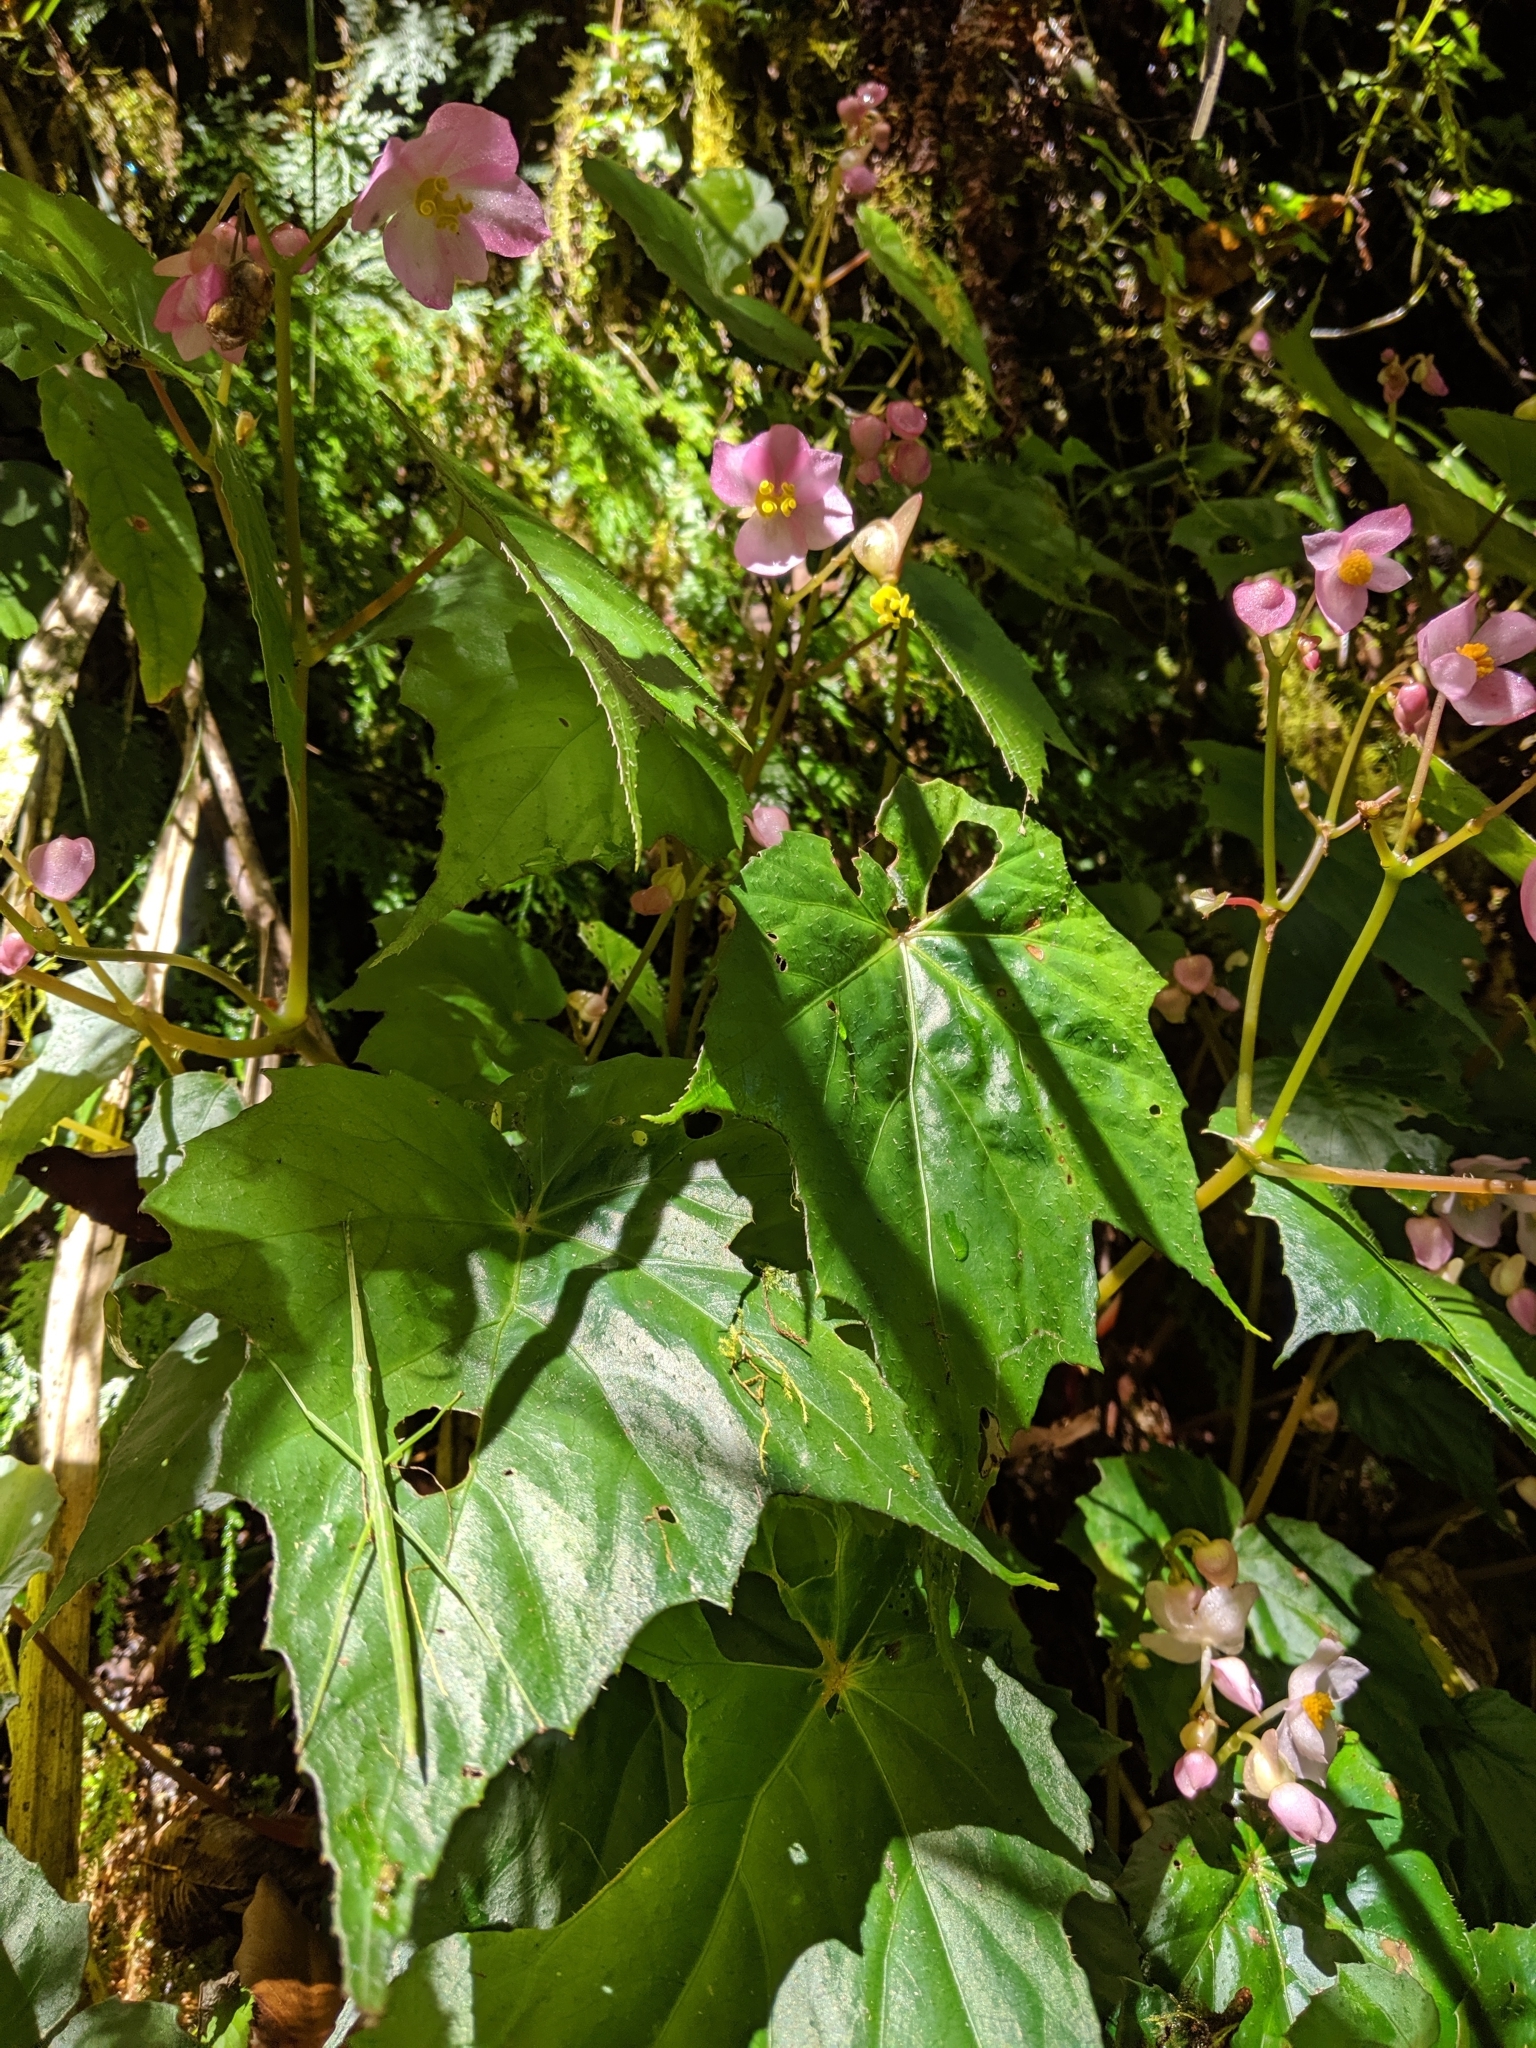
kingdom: Plantae
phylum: Tracheophyta
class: Magnoliopsida
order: Cucurbitales
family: Begoniaceae
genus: Begonia
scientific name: Begonia formosana
